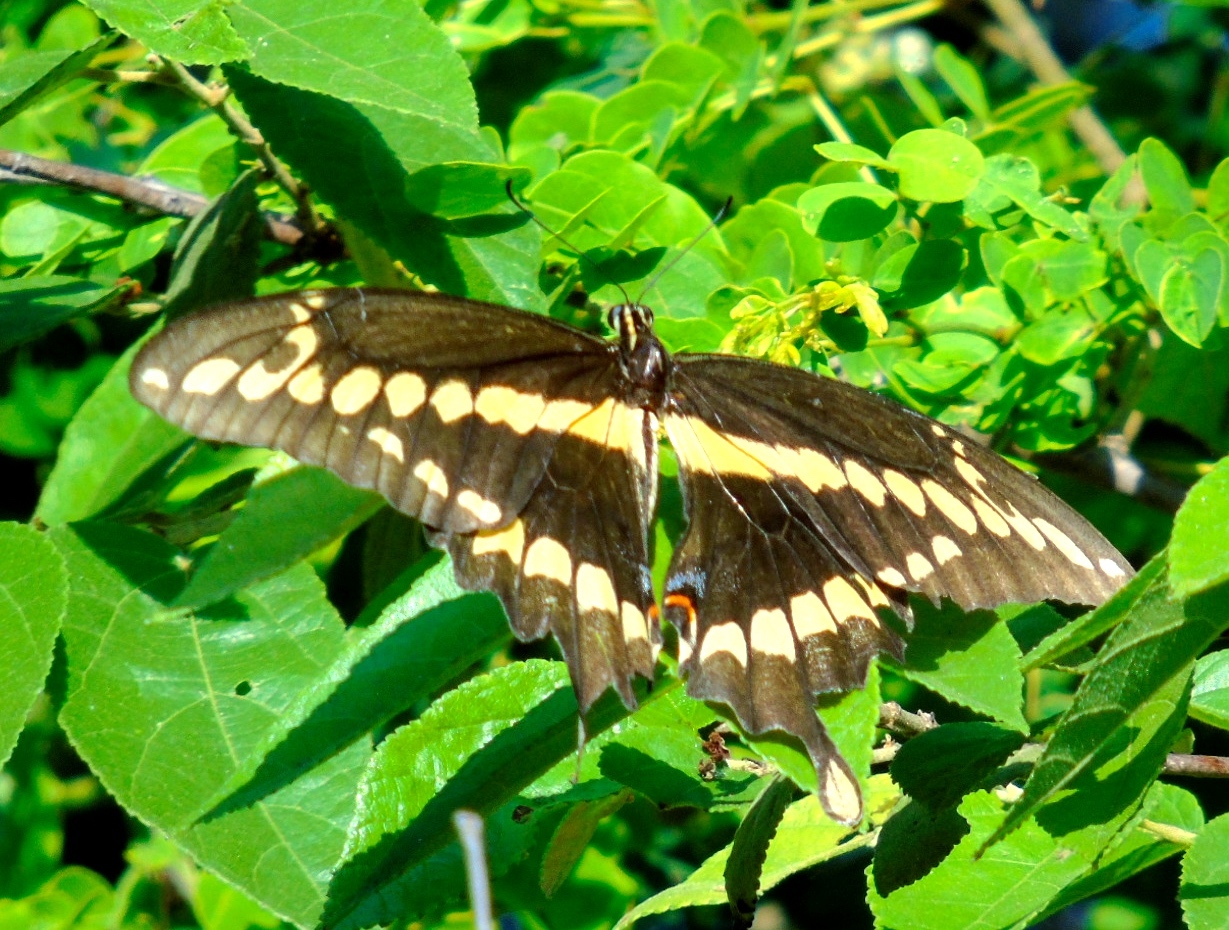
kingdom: Animalia
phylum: Arthropoda
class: Insecta
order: Lepidoptera
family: Papilionidae
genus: Papilio
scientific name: Papilio rumiko
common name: Western giant swallowtail
